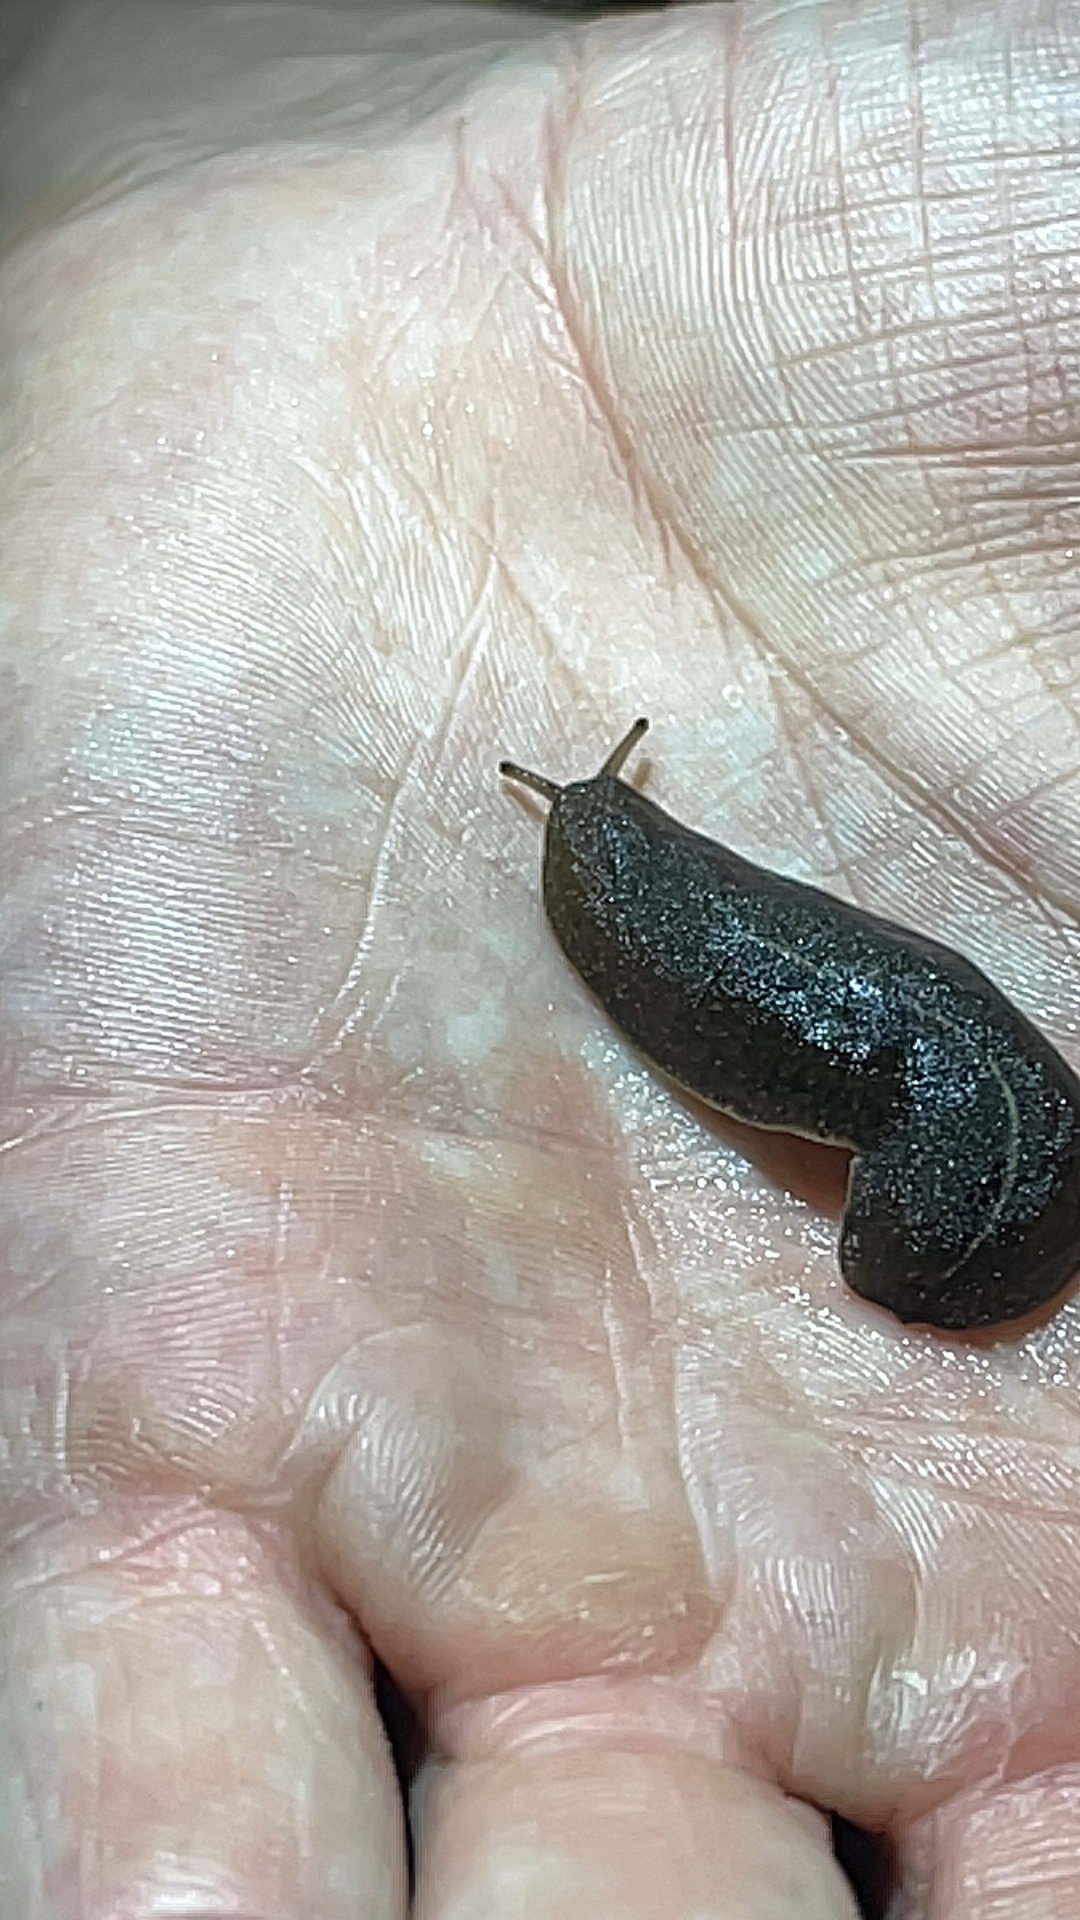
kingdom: Animalia
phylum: Mollusca
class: Gastropoda
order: Systellommatophora
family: Veronicellidae
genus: Laevicaulis
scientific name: Laevicaulis alte
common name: Tropical leatherleaf
